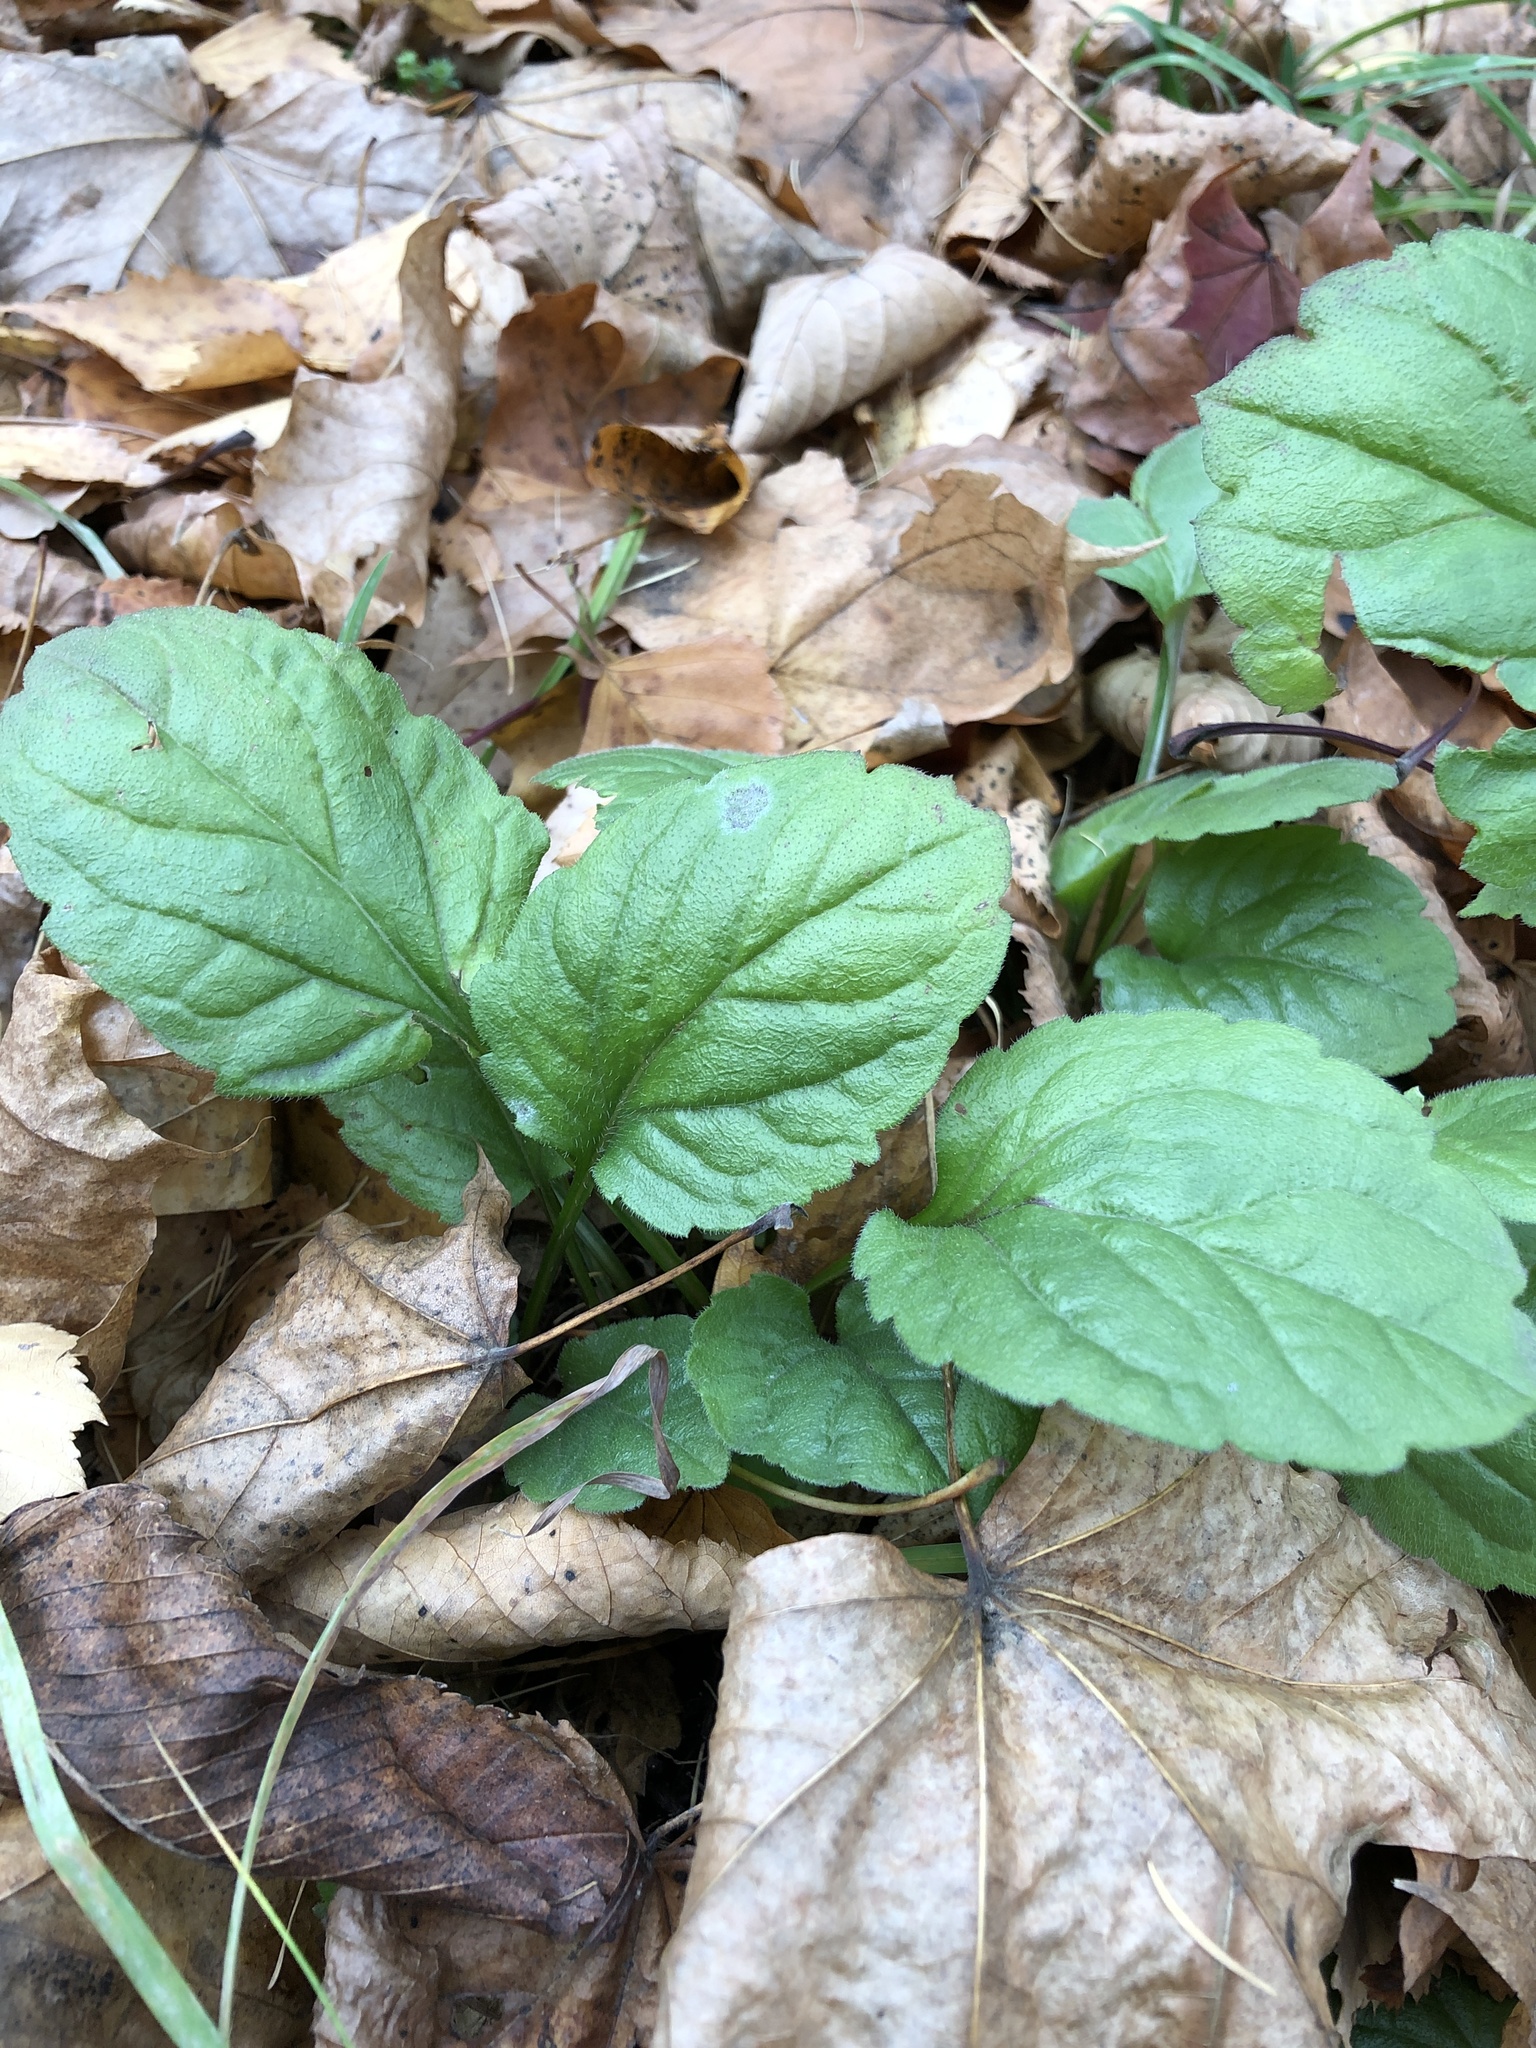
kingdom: Plantae
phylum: Tracheophyta
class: Magnoliopsida
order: Asterales
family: Asteraceae
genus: Erigeron
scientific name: Erigeron annuus
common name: Tall fleabane
